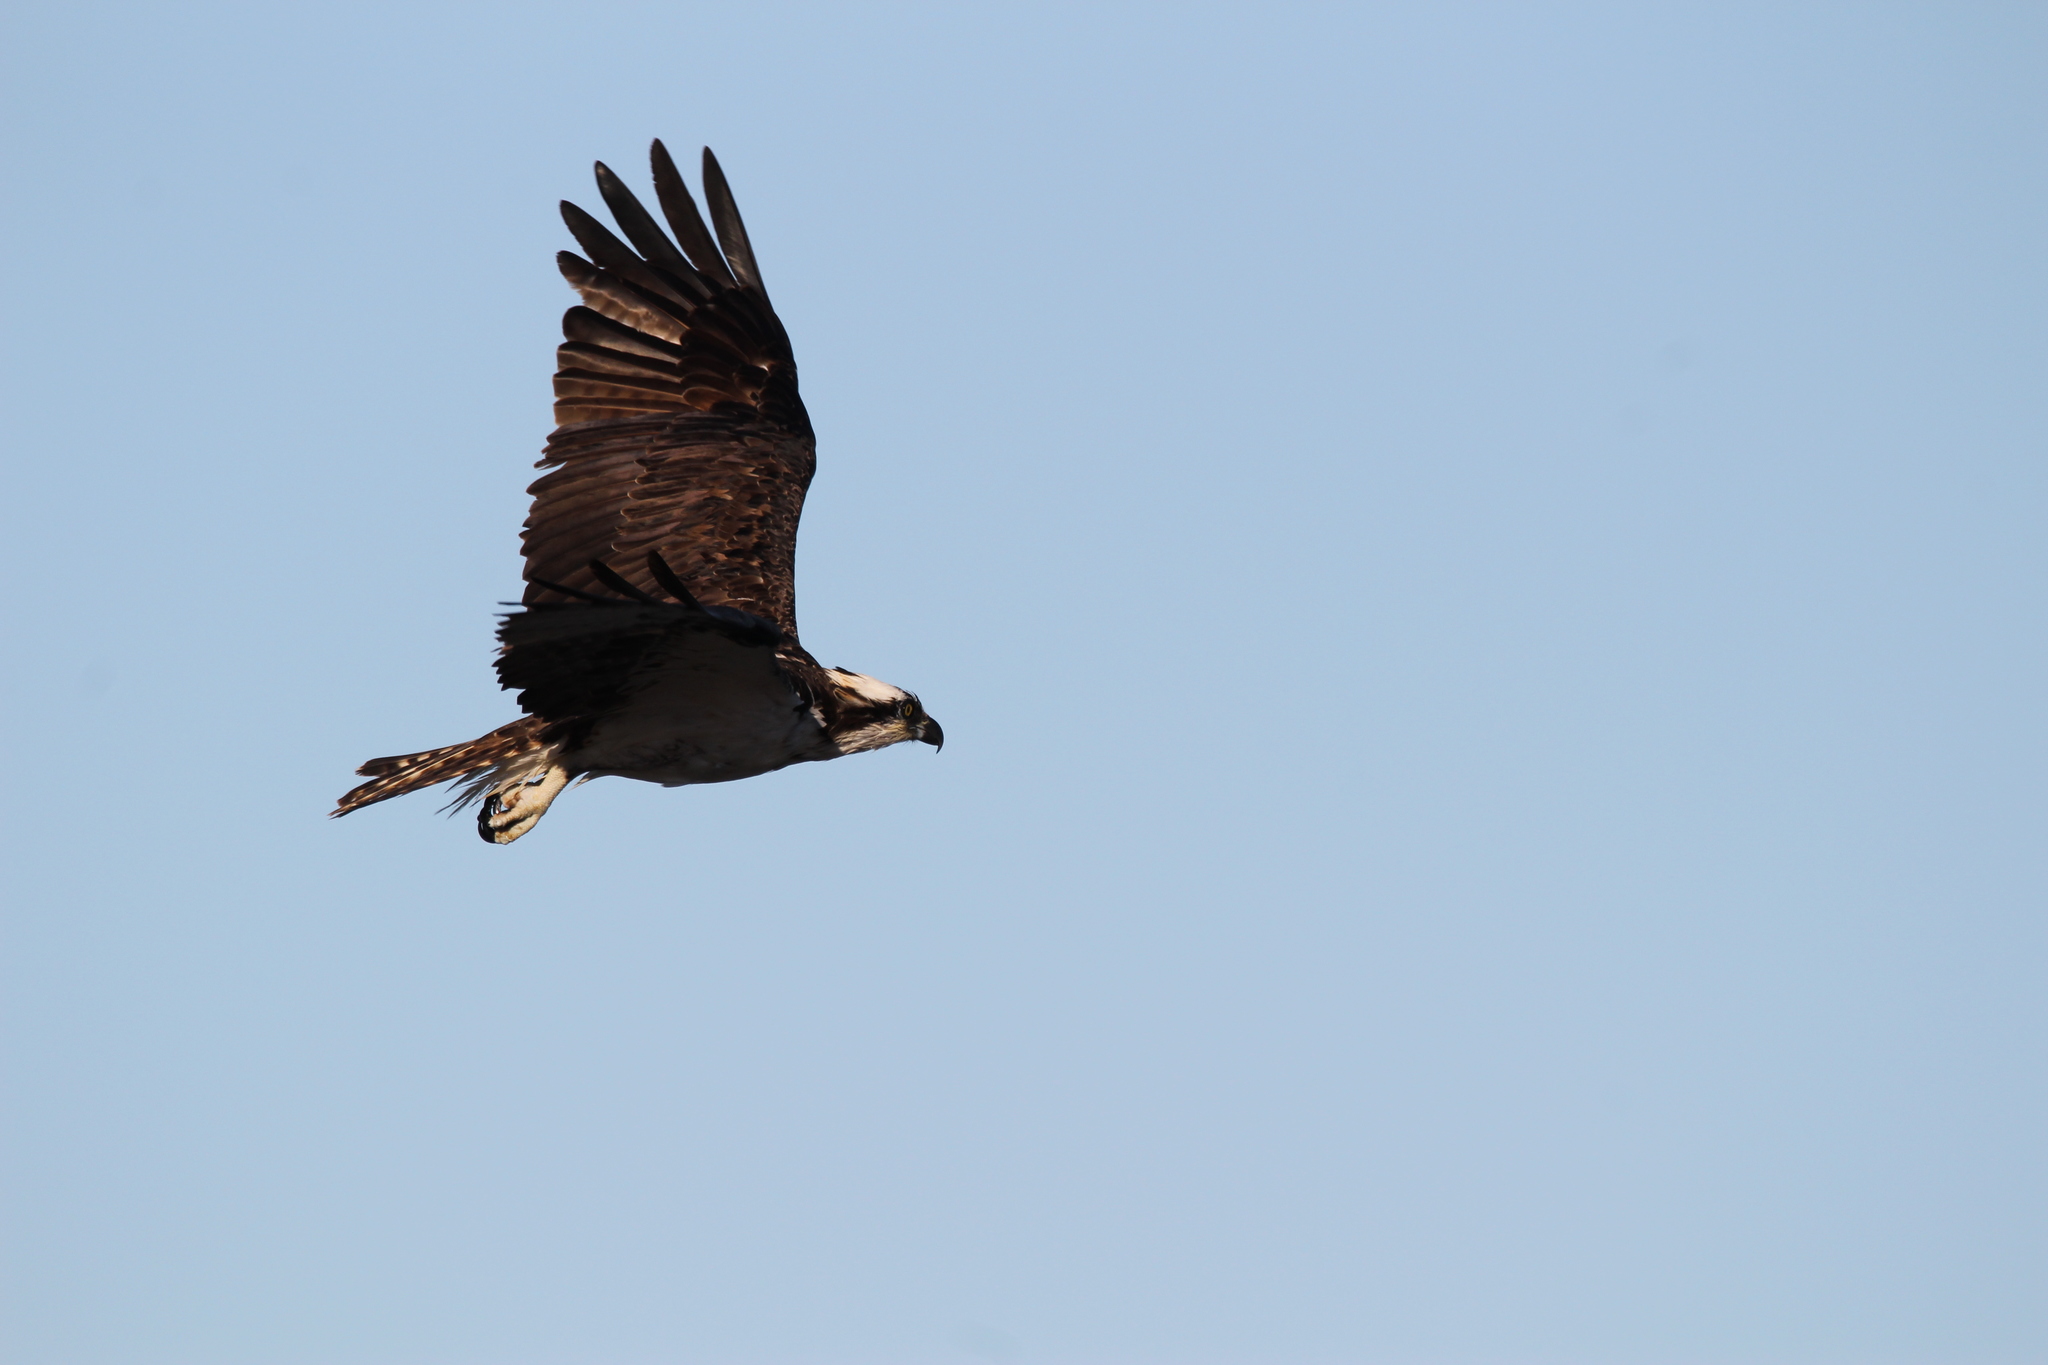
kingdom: Animalia
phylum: Chordata
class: Aves
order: Accipitriformes
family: Pandionidae
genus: Pandion
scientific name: Pandion haliaetus
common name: Osprey
